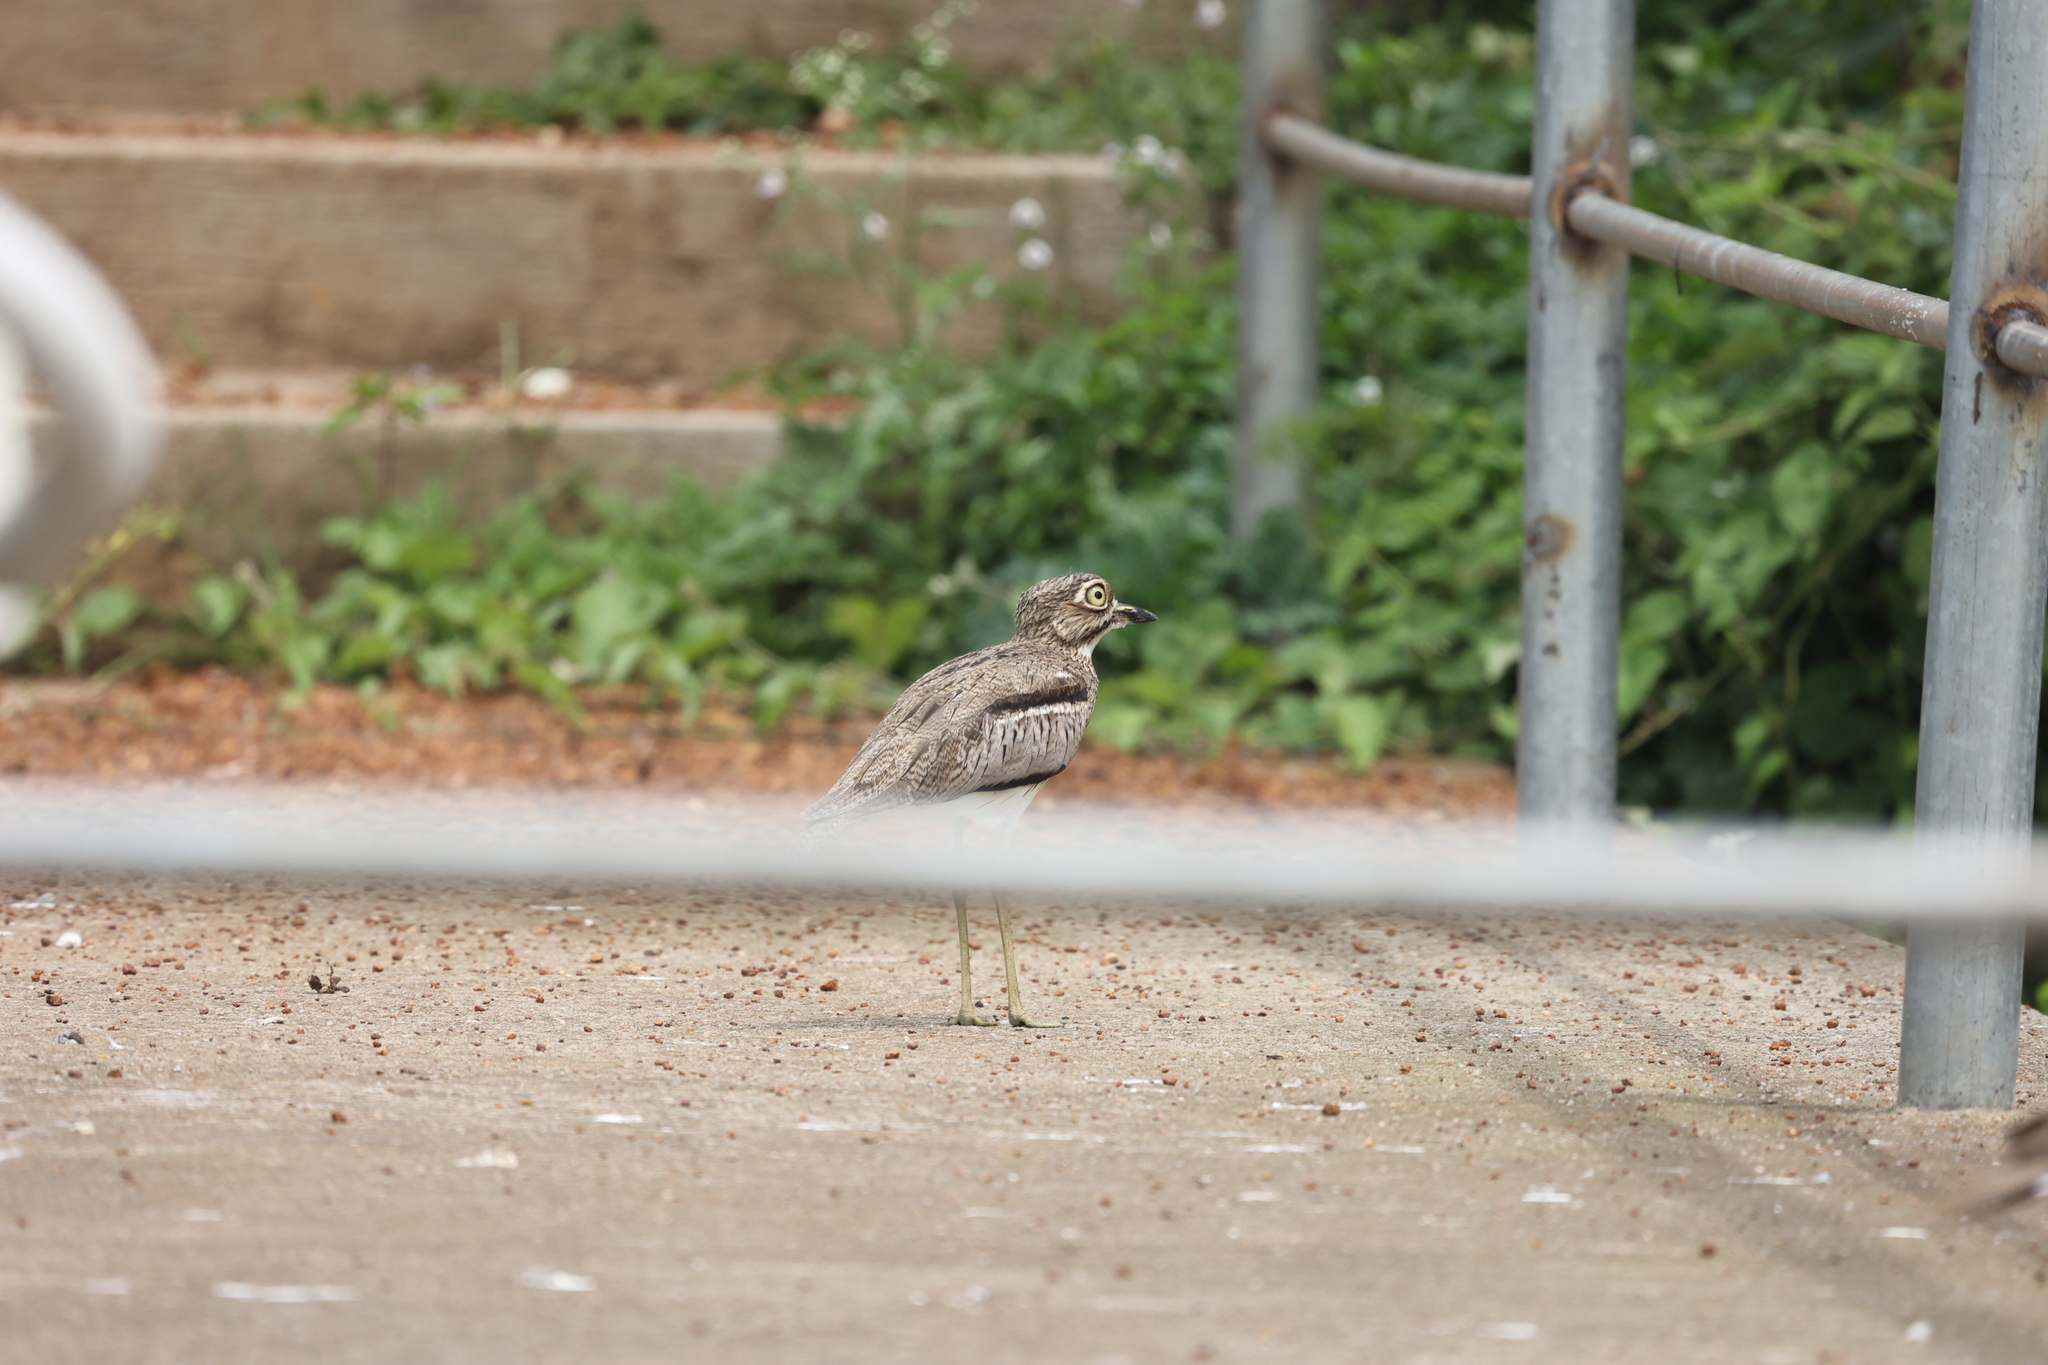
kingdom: Animalia
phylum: Chordata
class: Aves
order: Charadriiformes
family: Burhinidae
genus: Burhinus
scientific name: Burhinus vermiculatus
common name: Water thick-knee
